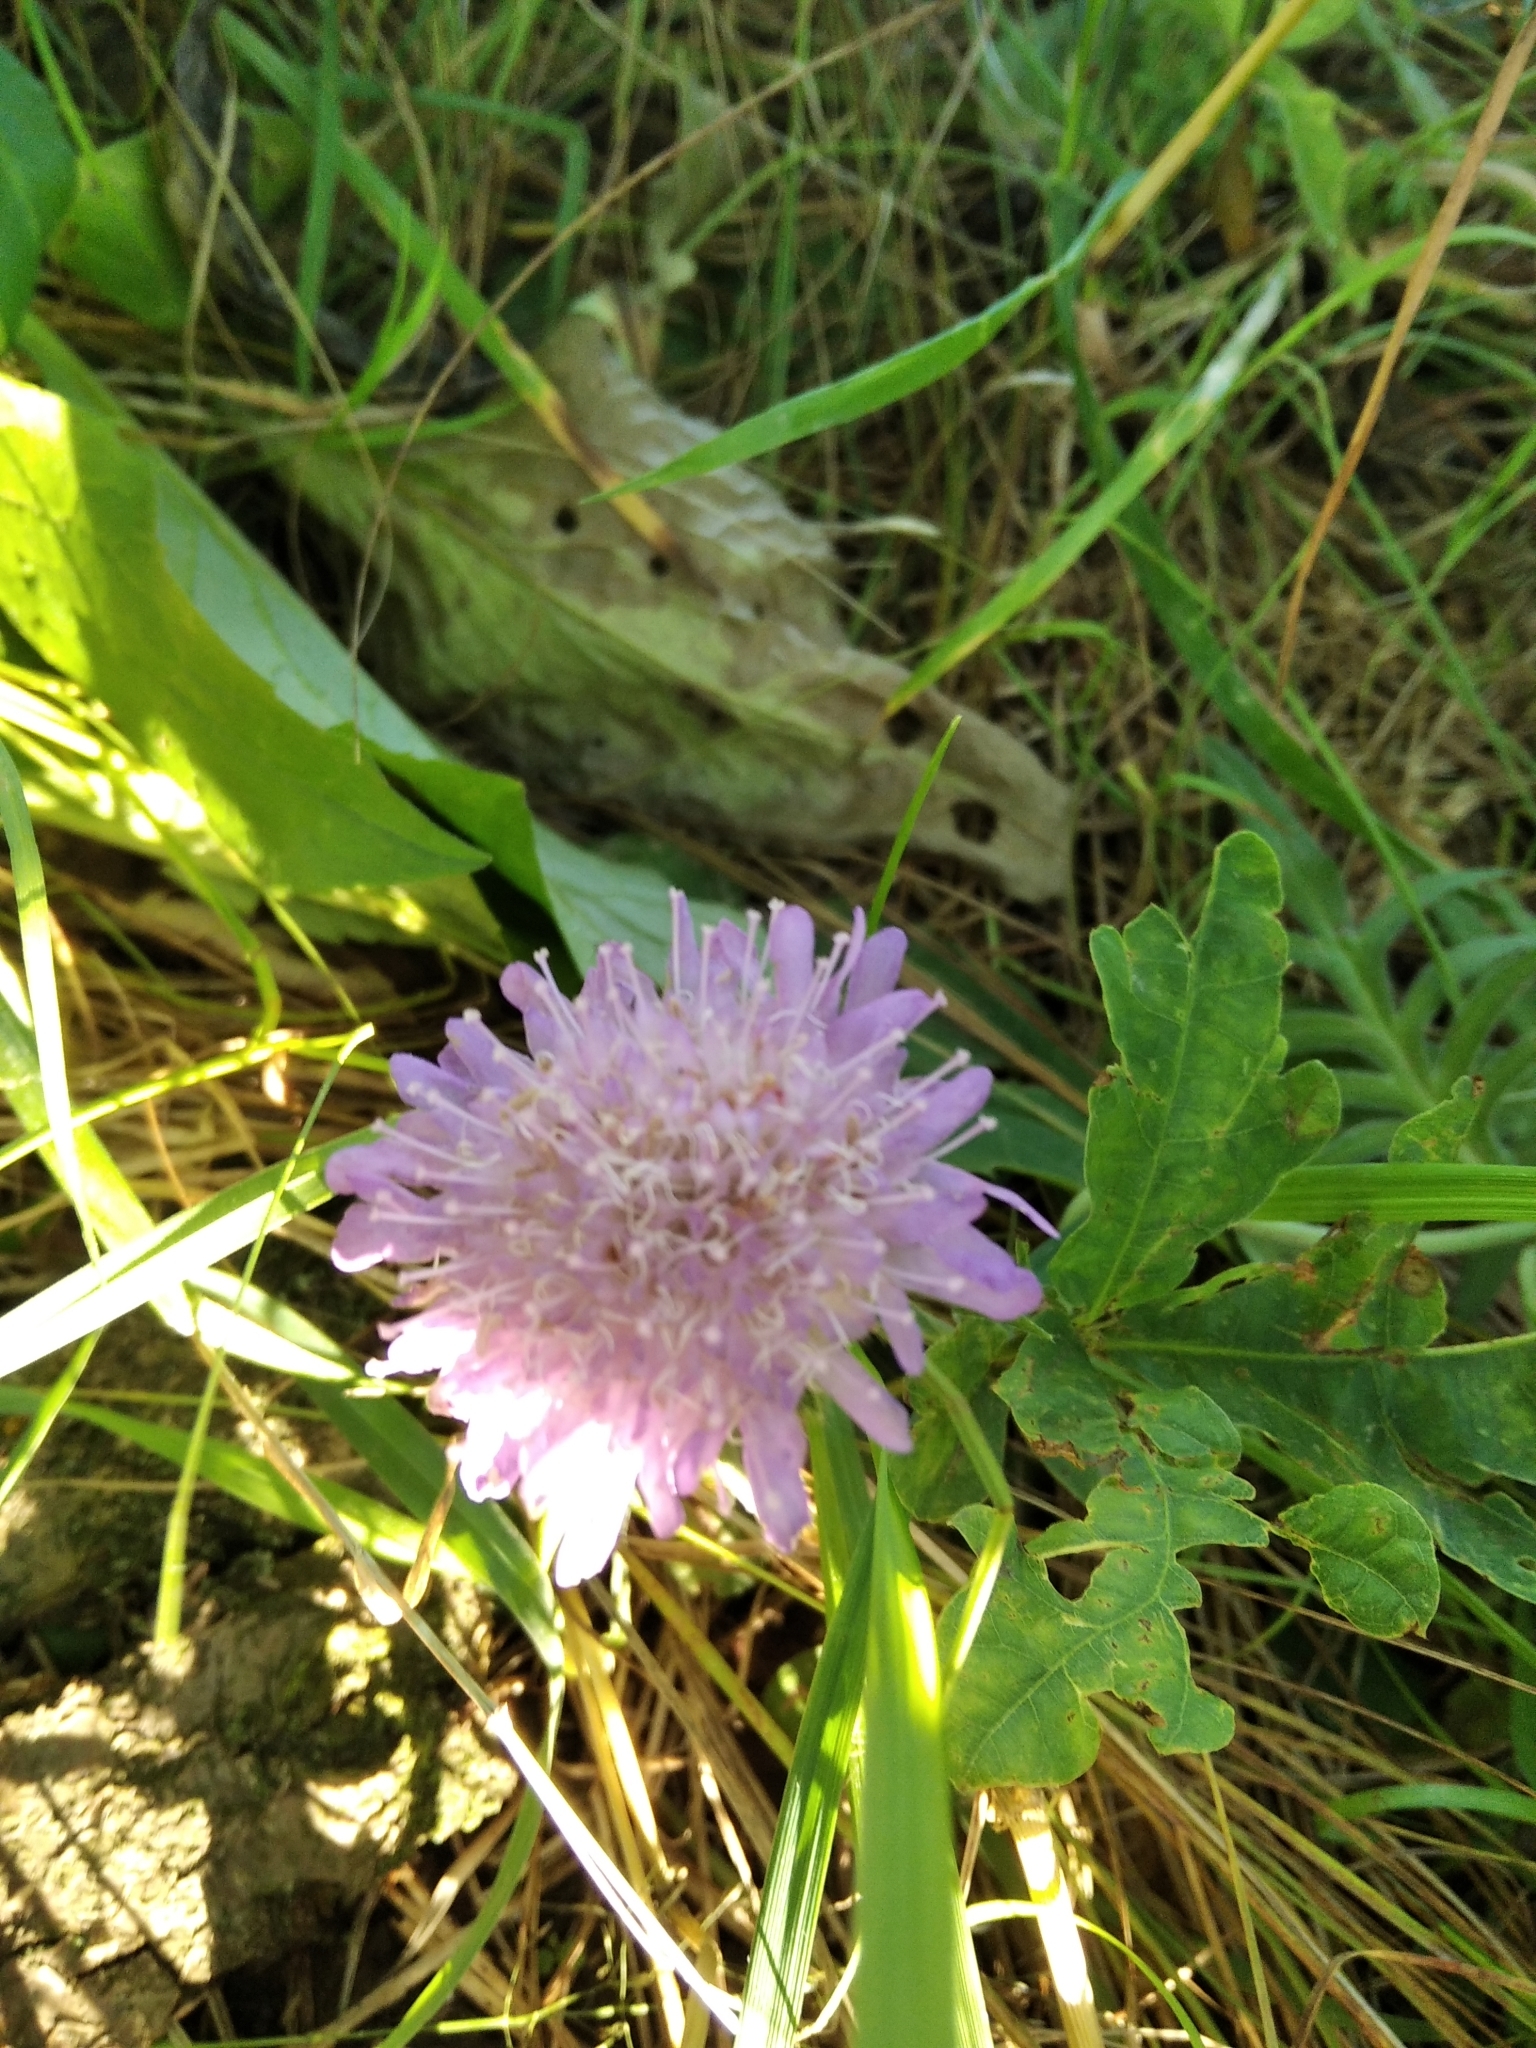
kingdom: Plantae
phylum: Tracheophyta
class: Magnoliopsida
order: Dipsacales
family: Caprifoliaceae
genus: Knautia
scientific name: Knautia arvensis
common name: Field scabiosa
